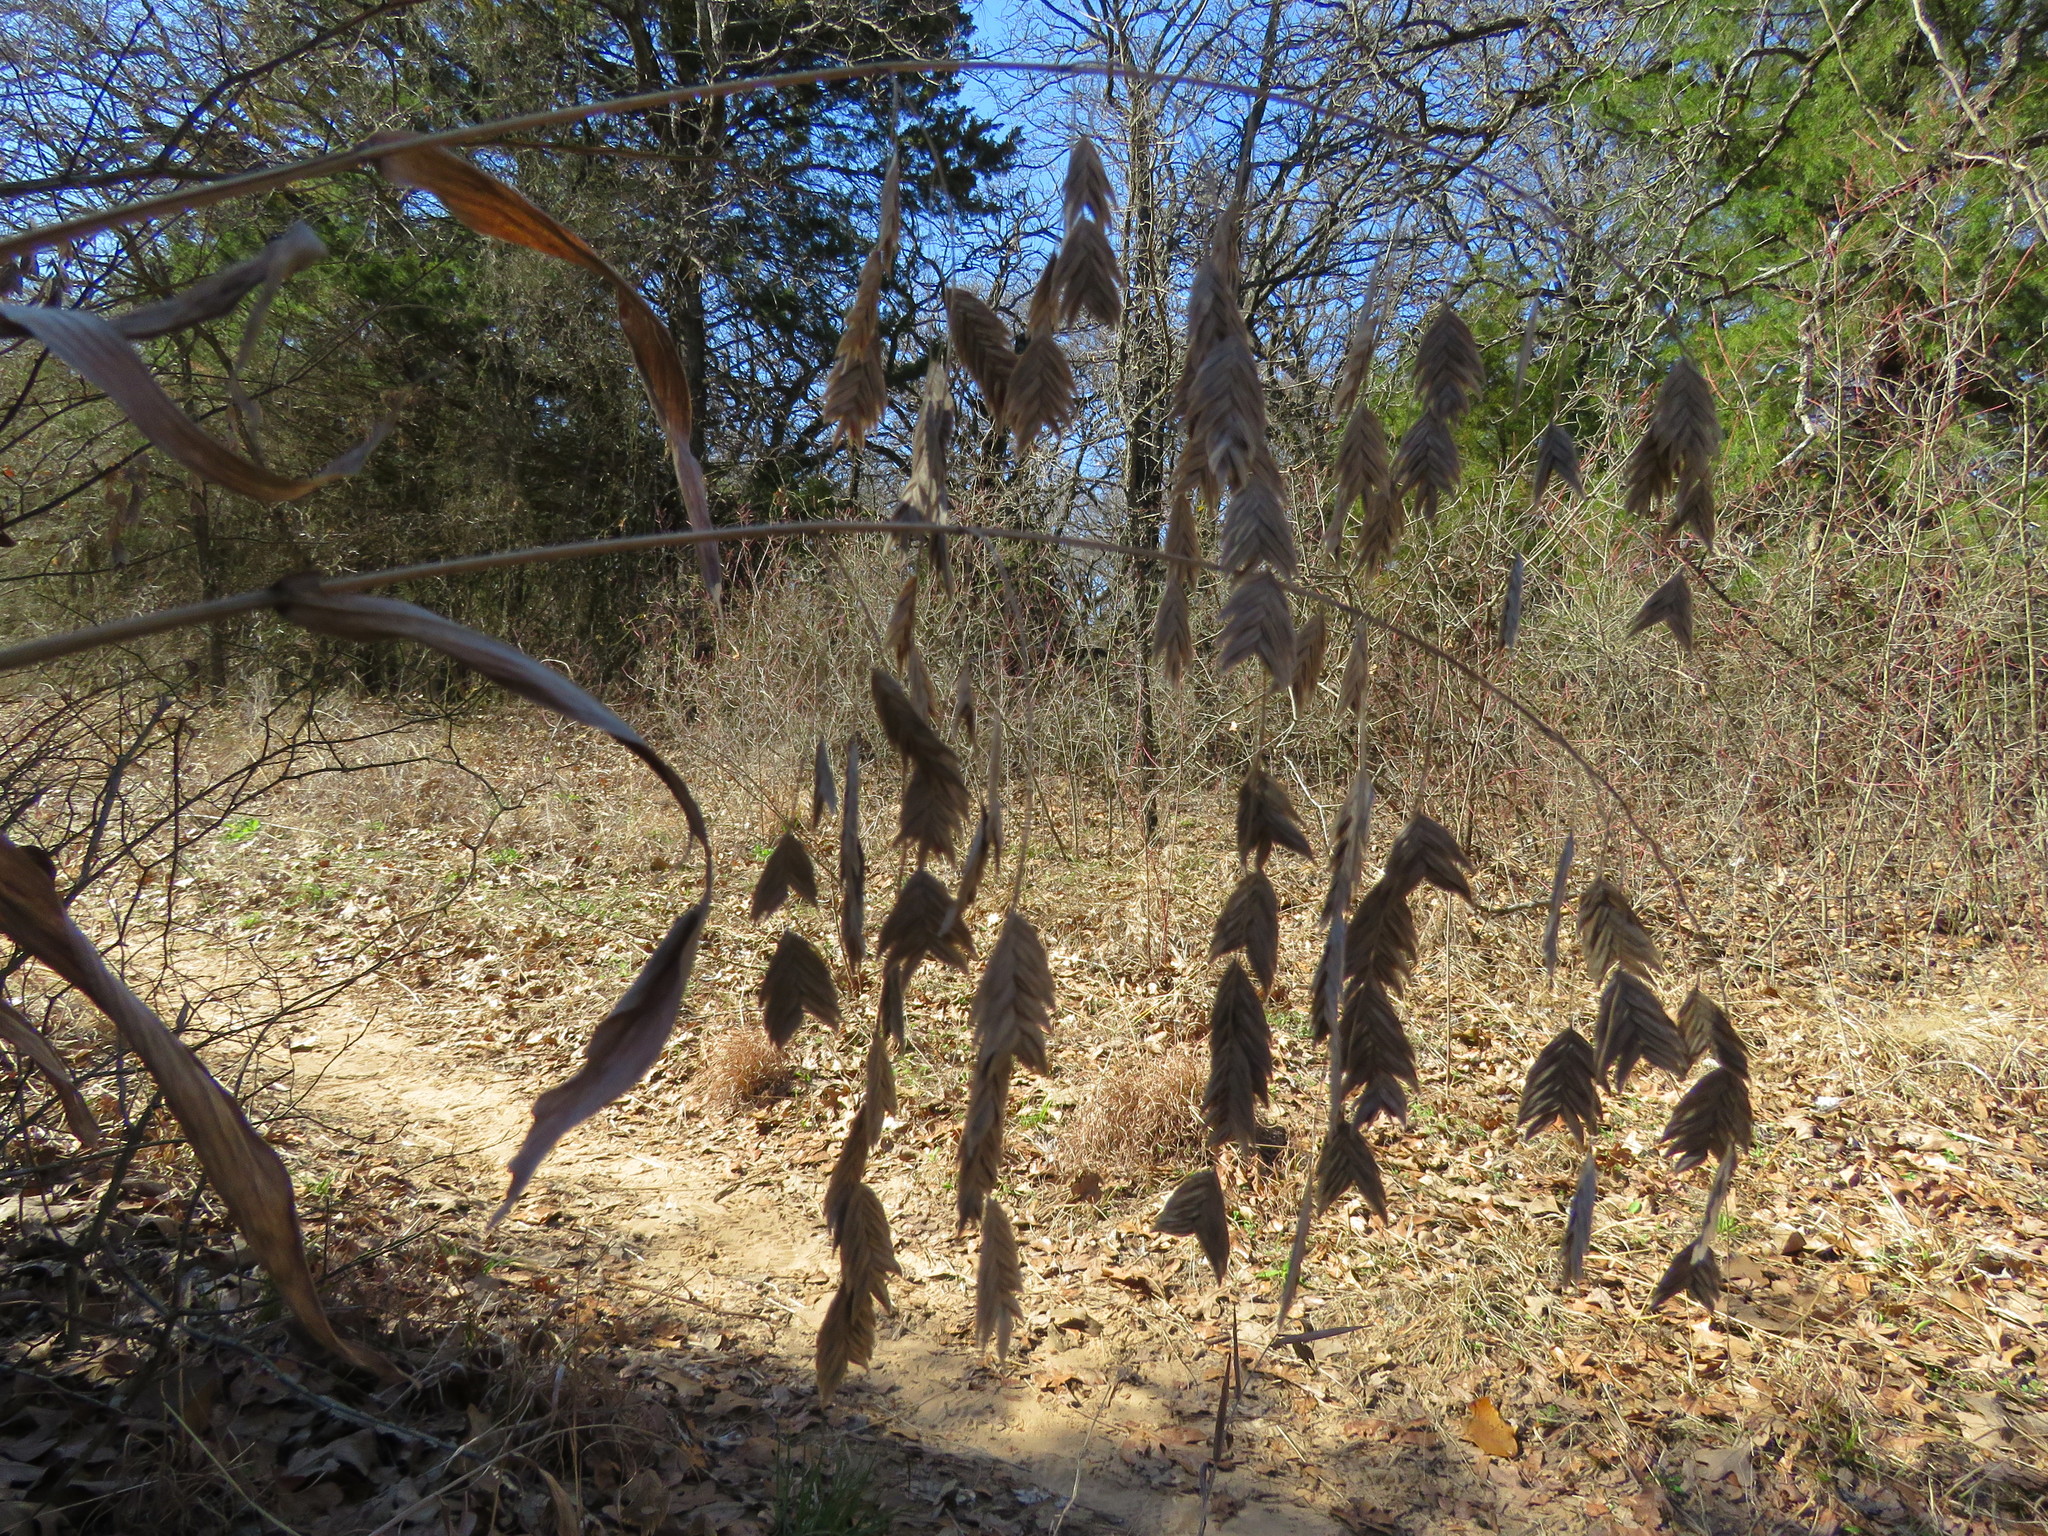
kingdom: Plantae
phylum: Tracheophyta
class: Liliopsida
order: Poales
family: Poaceae
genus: Chasmanthium
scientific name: Chasmanthium latifolium
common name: Broad-leaved chasmanthium
